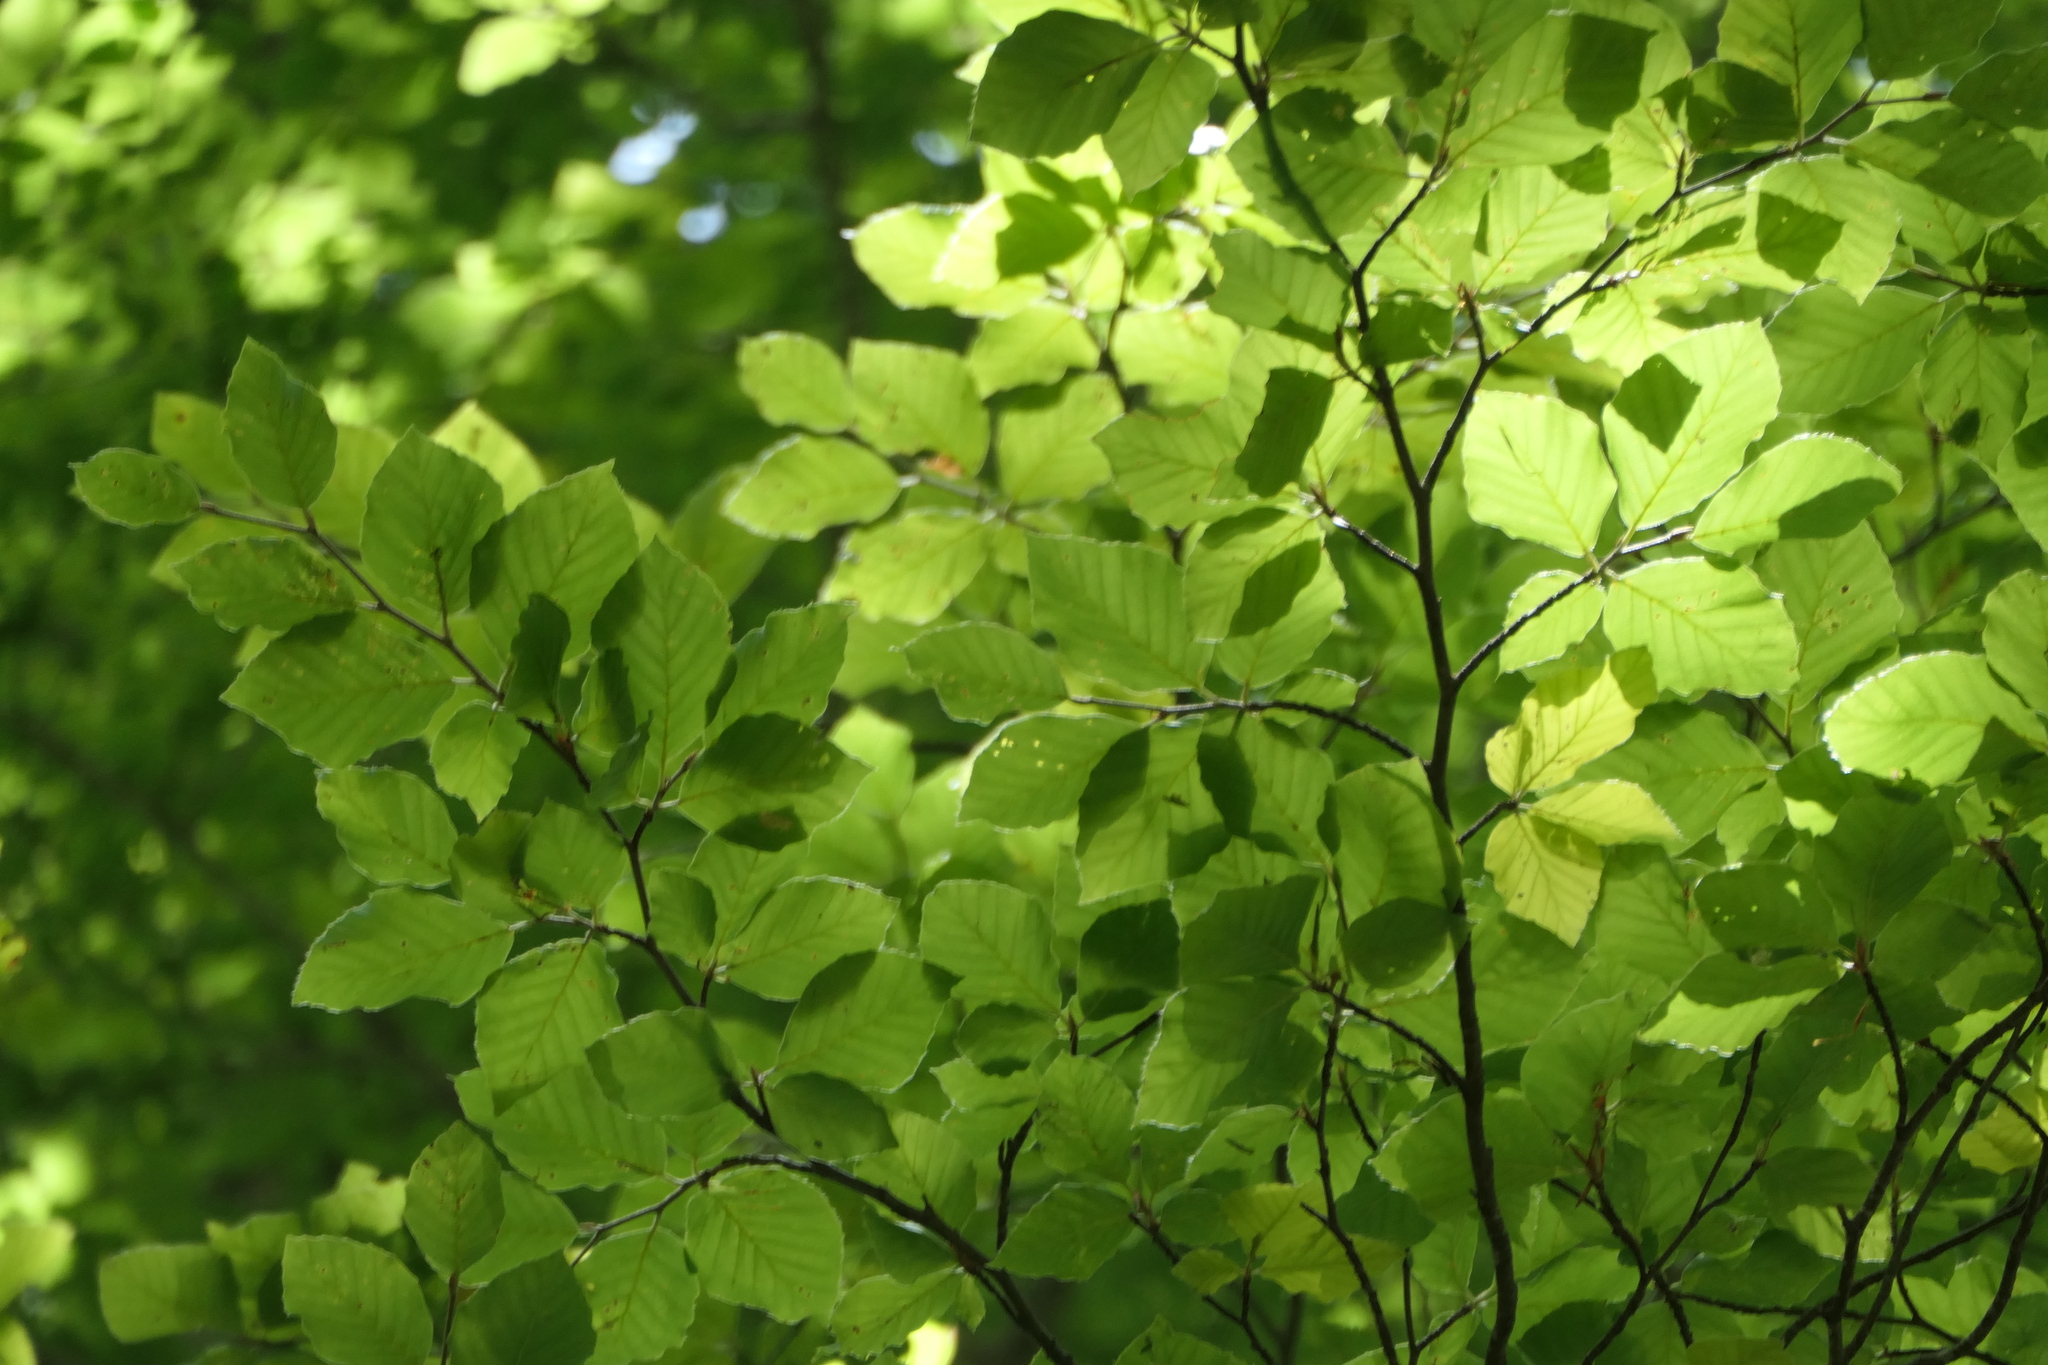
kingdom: Plantae
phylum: Tracheophyta
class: Magnoliopsida
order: Fagales
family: Fagaceae
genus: Fagus
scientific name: Fagus sylvatica
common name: Beech
